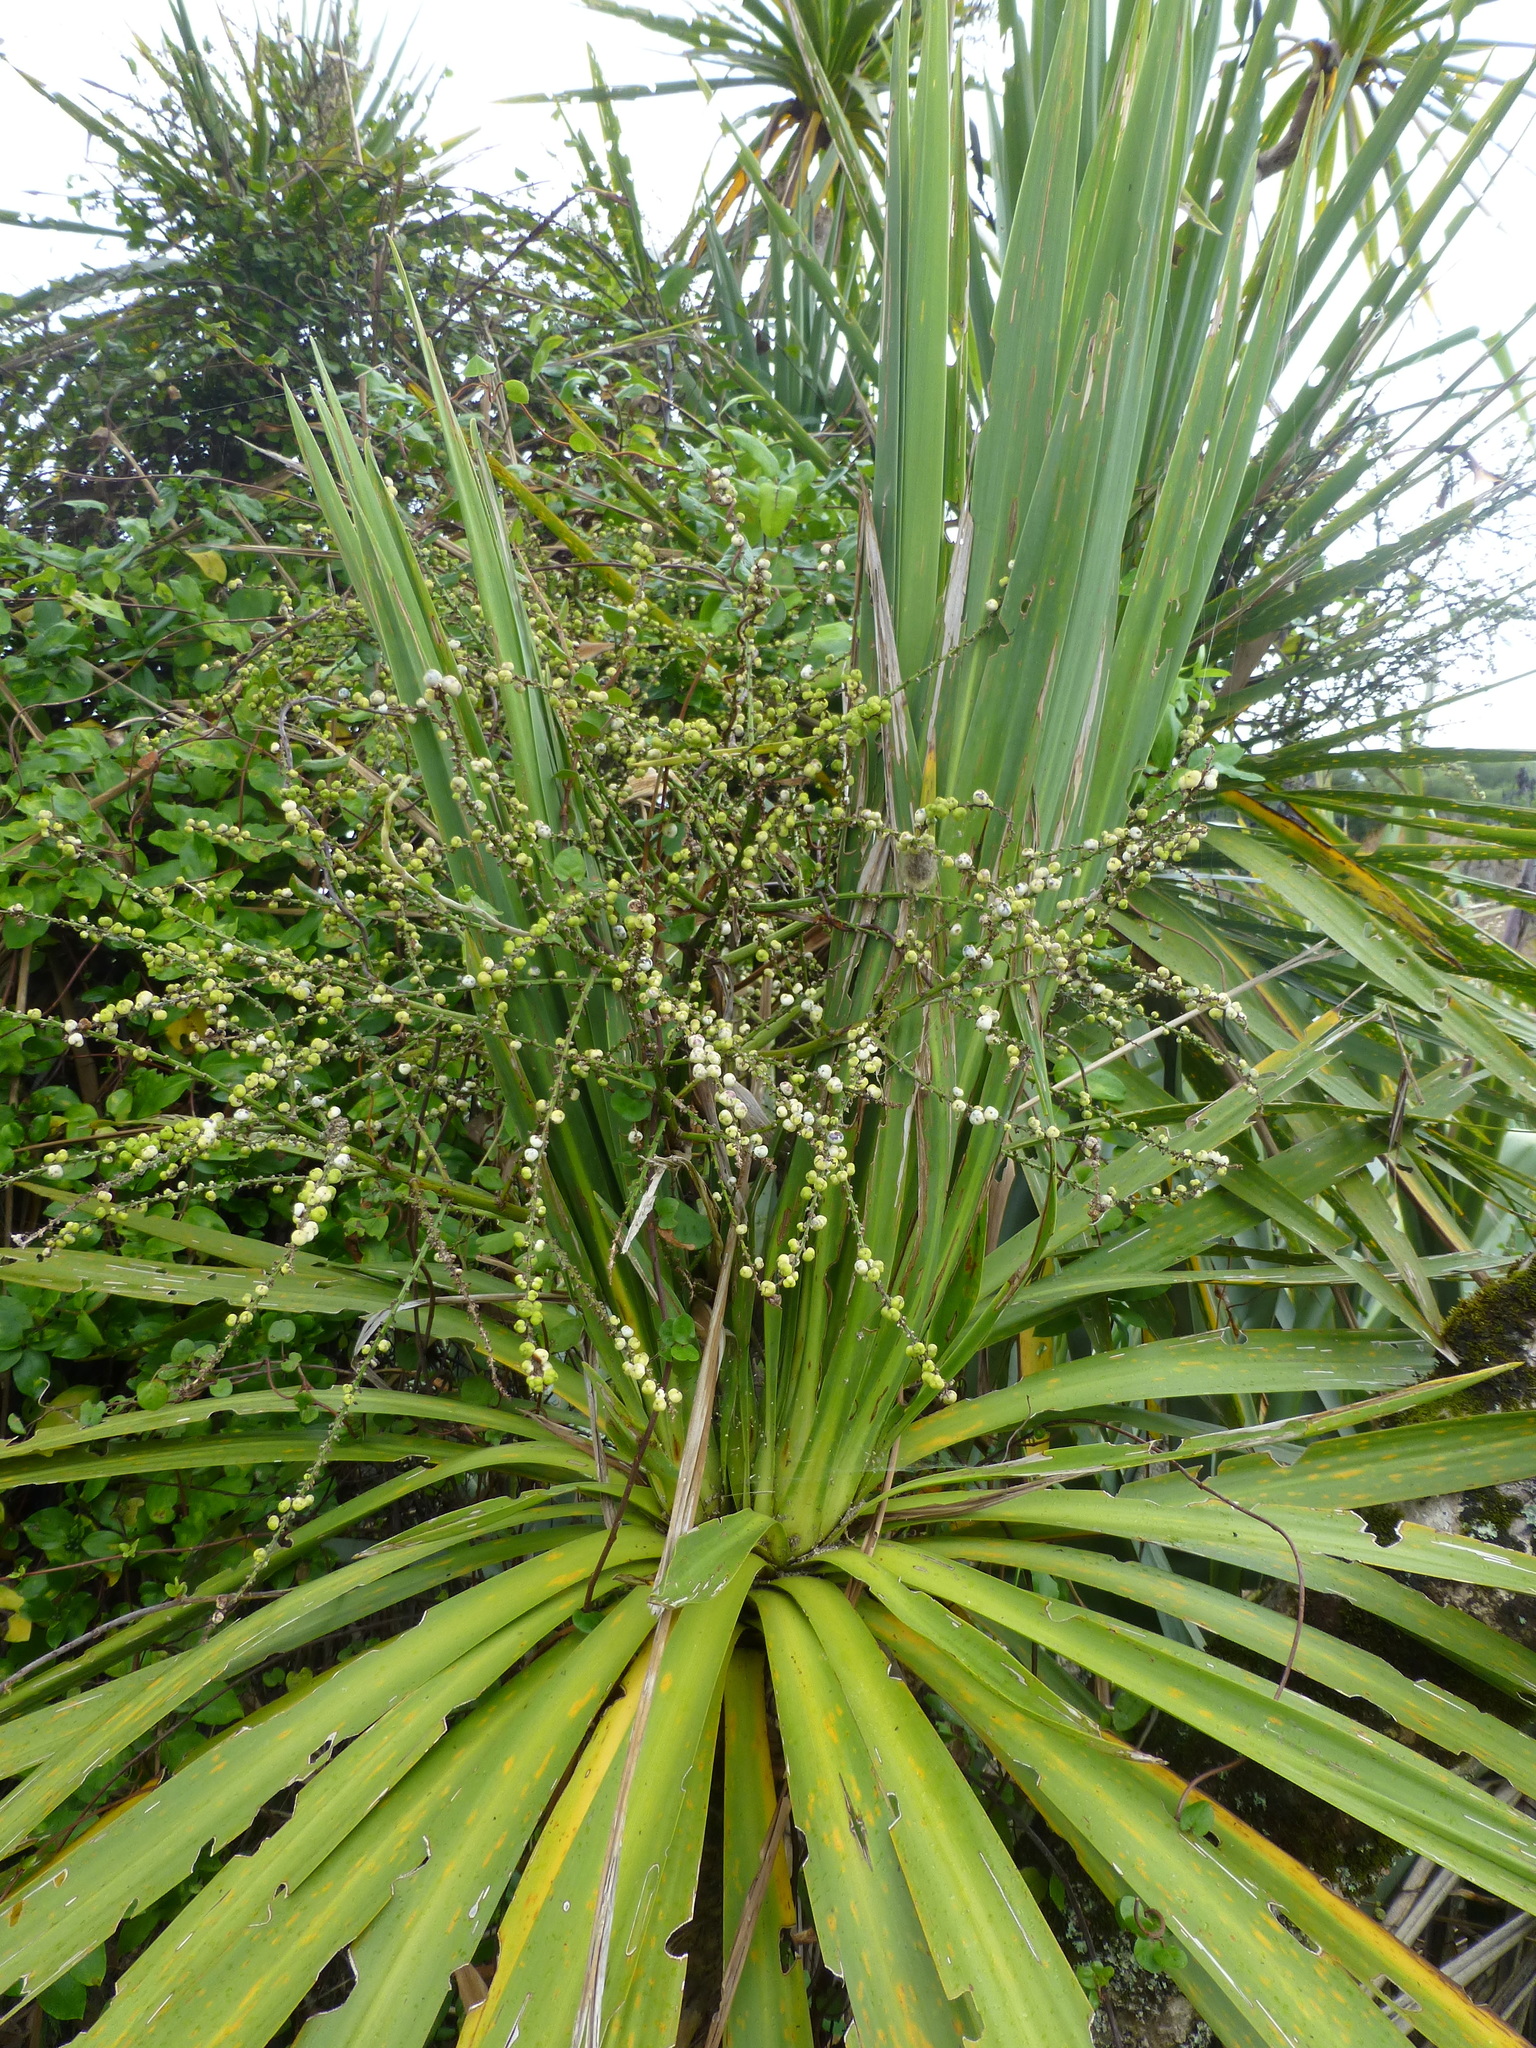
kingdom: Plantae
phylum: Tracheophyta
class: Liliopsida
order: Asparagales
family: Asparagaceae
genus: Cordyline
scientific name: Cordyline australis
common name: Cabbage-palm
